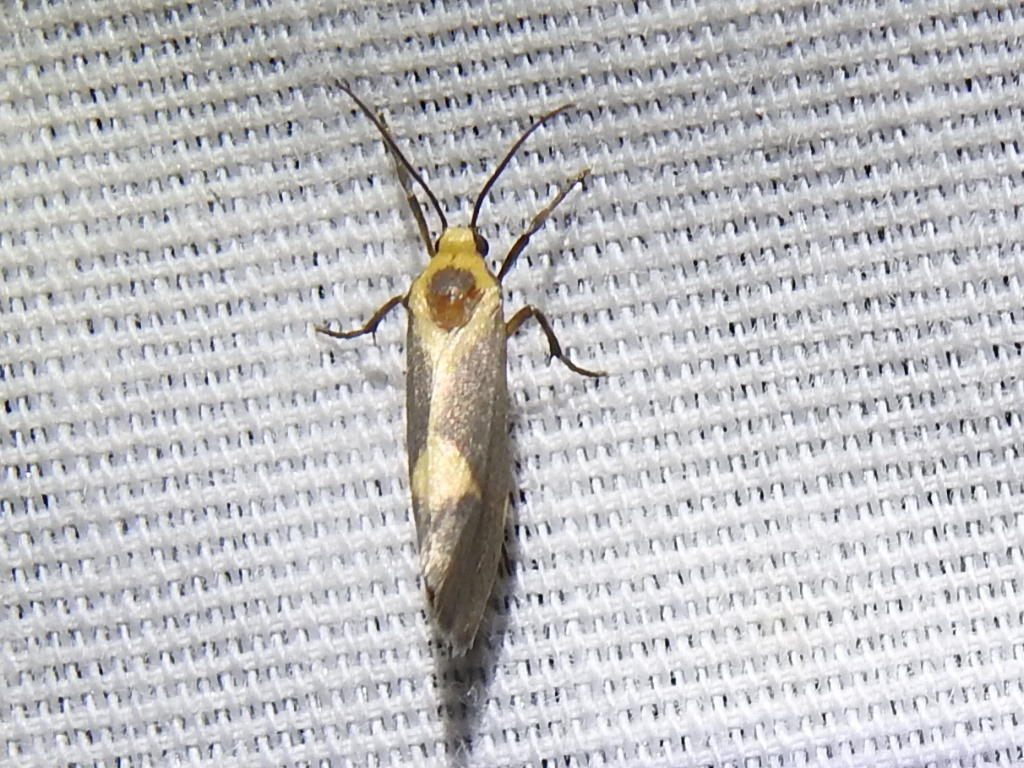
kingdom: Animalia
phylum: Arthropoda
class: Insecta
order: Lepidoptera
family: Erebidae
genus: Cisthene
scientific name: Cisthene tenuifascia
